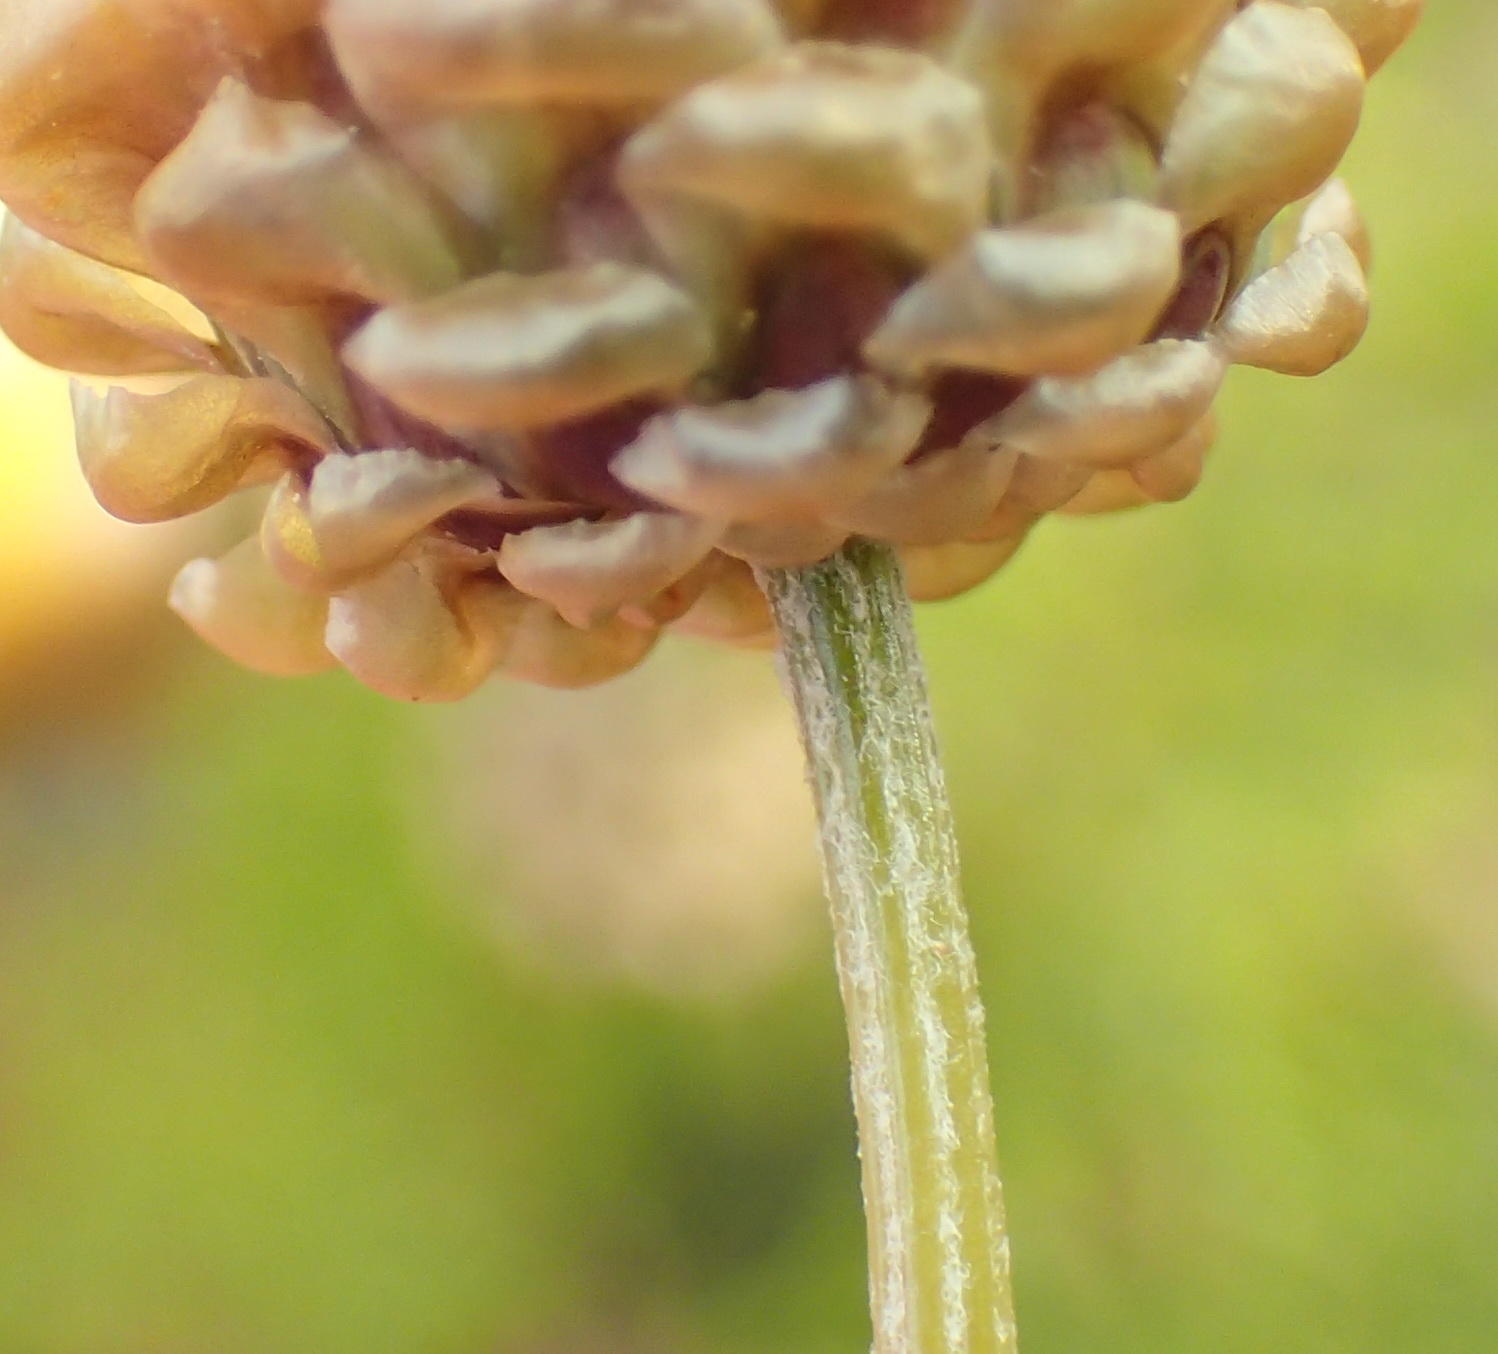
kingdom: Plantae
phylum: Tracheophyta
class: Magnoliopsida
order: Asterales
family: Asteraceae
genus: Ursinia
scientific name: Ursinia scariosa
